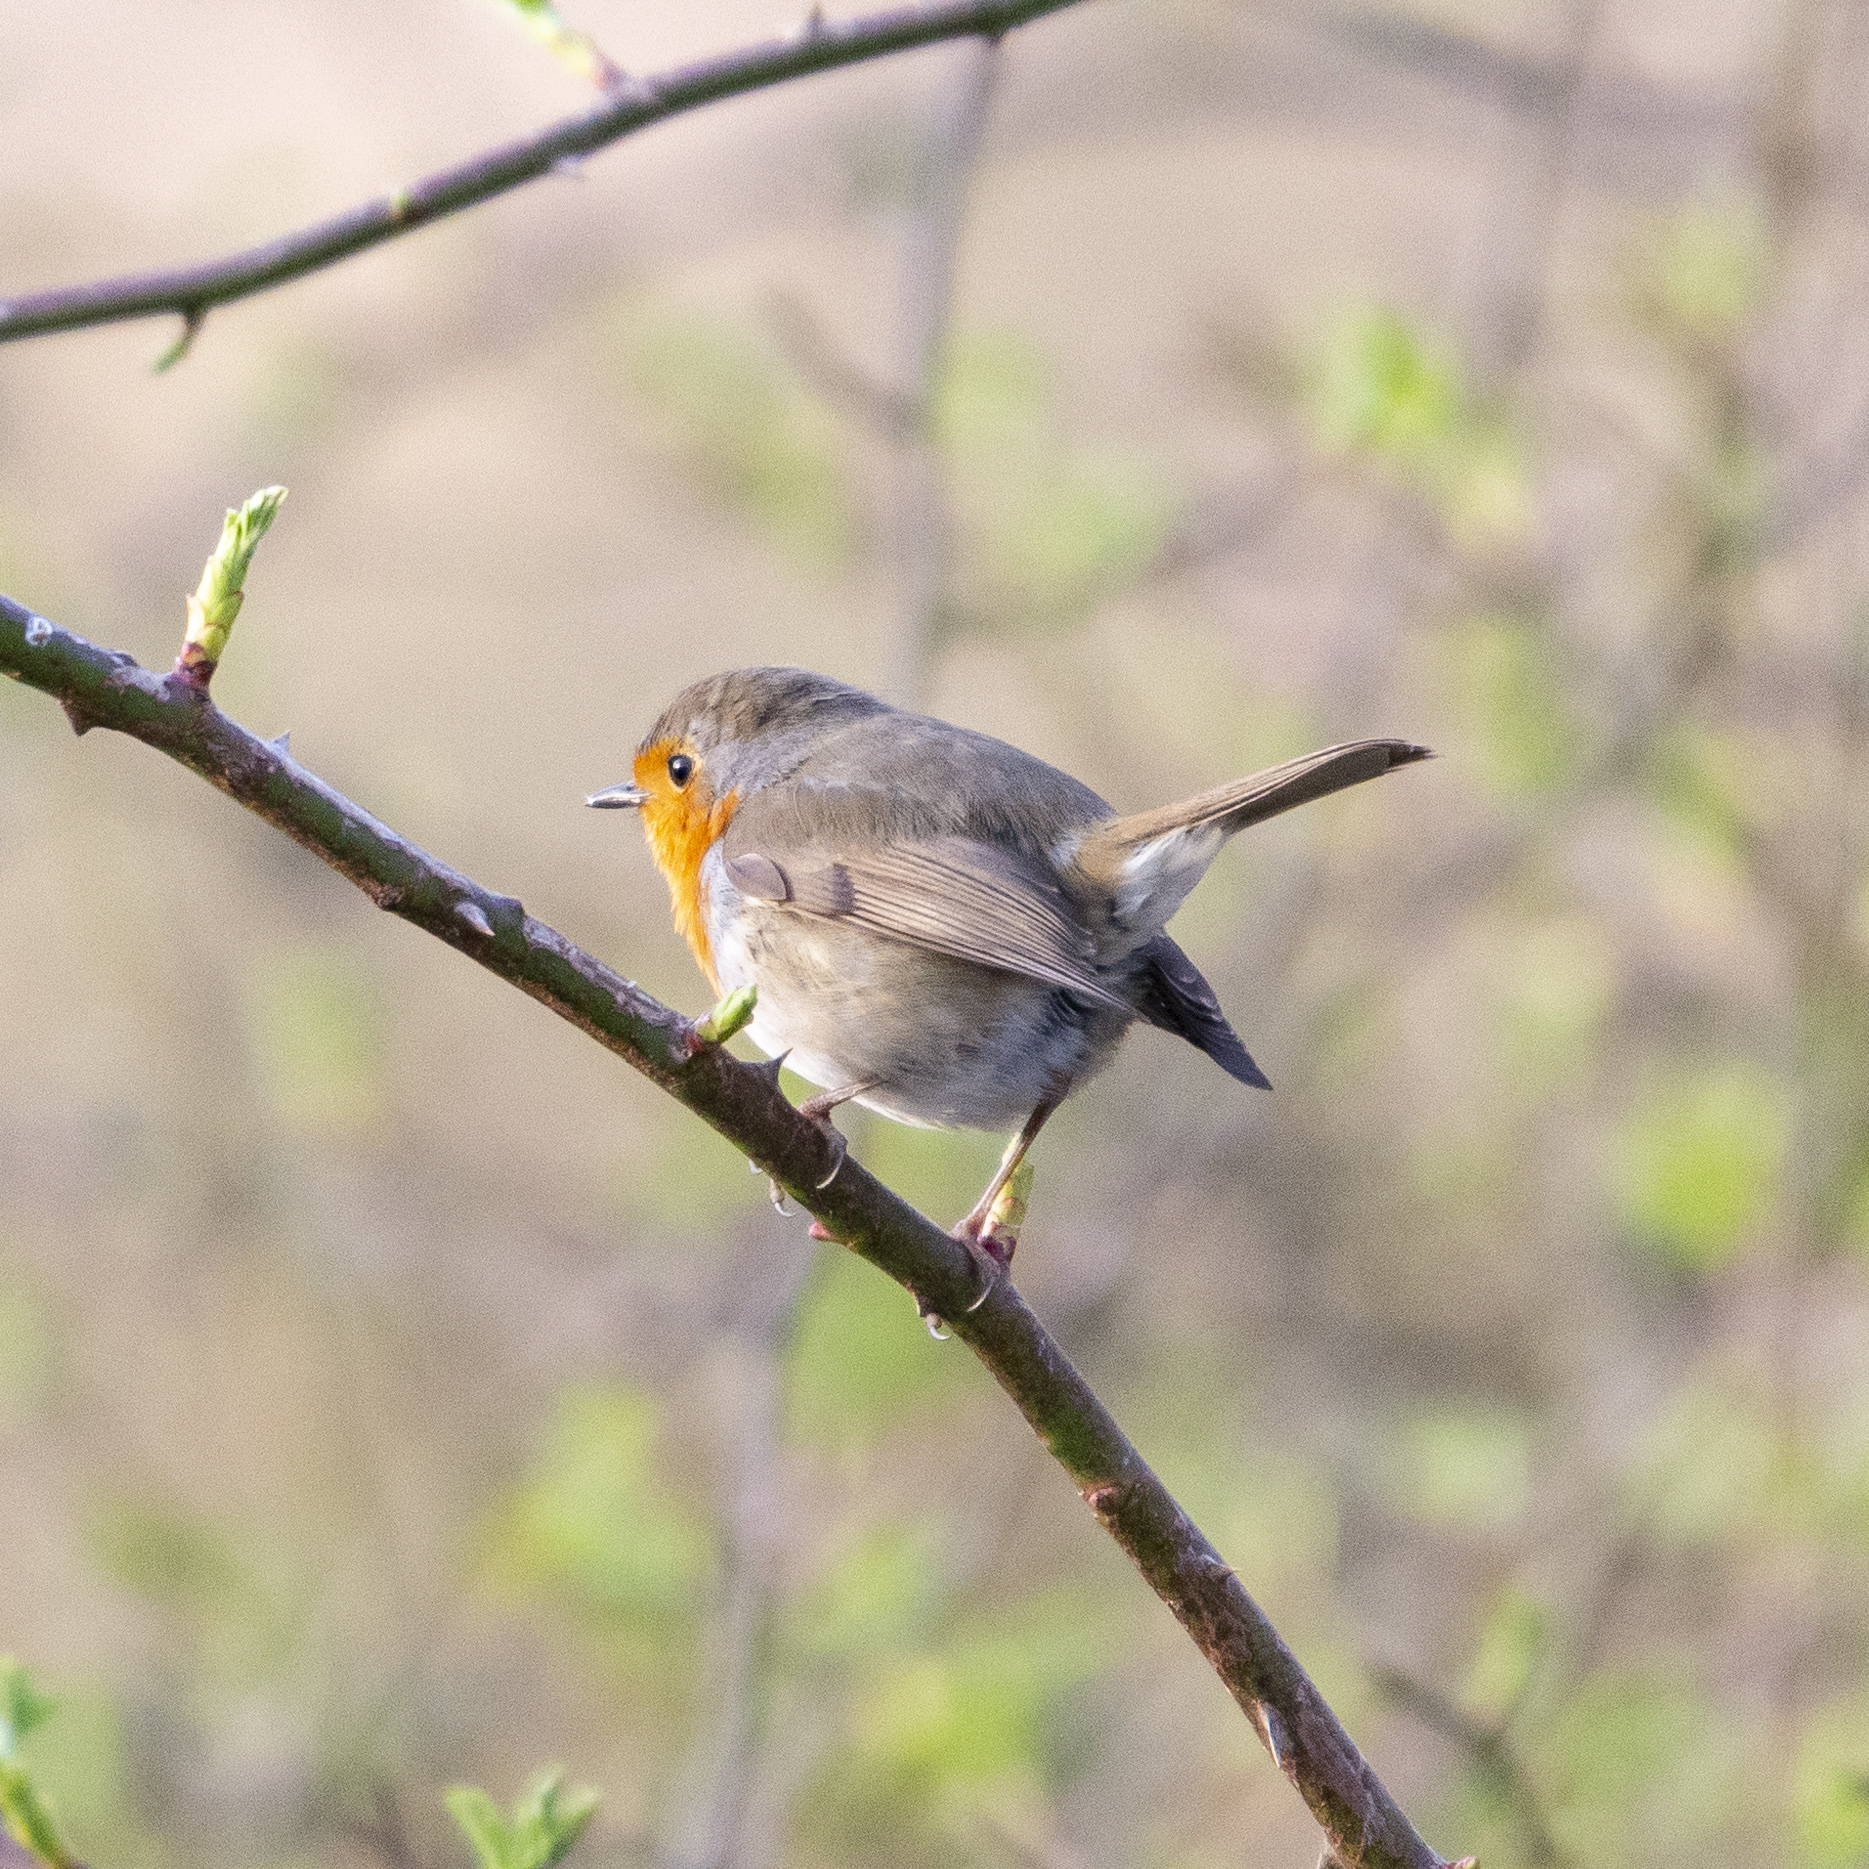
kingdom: Animalia
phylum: Chordata
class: Aves
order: Passeriformes
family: Muscicapidae
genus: Erithacus
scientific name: Erithacus rubecula
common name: European robin
